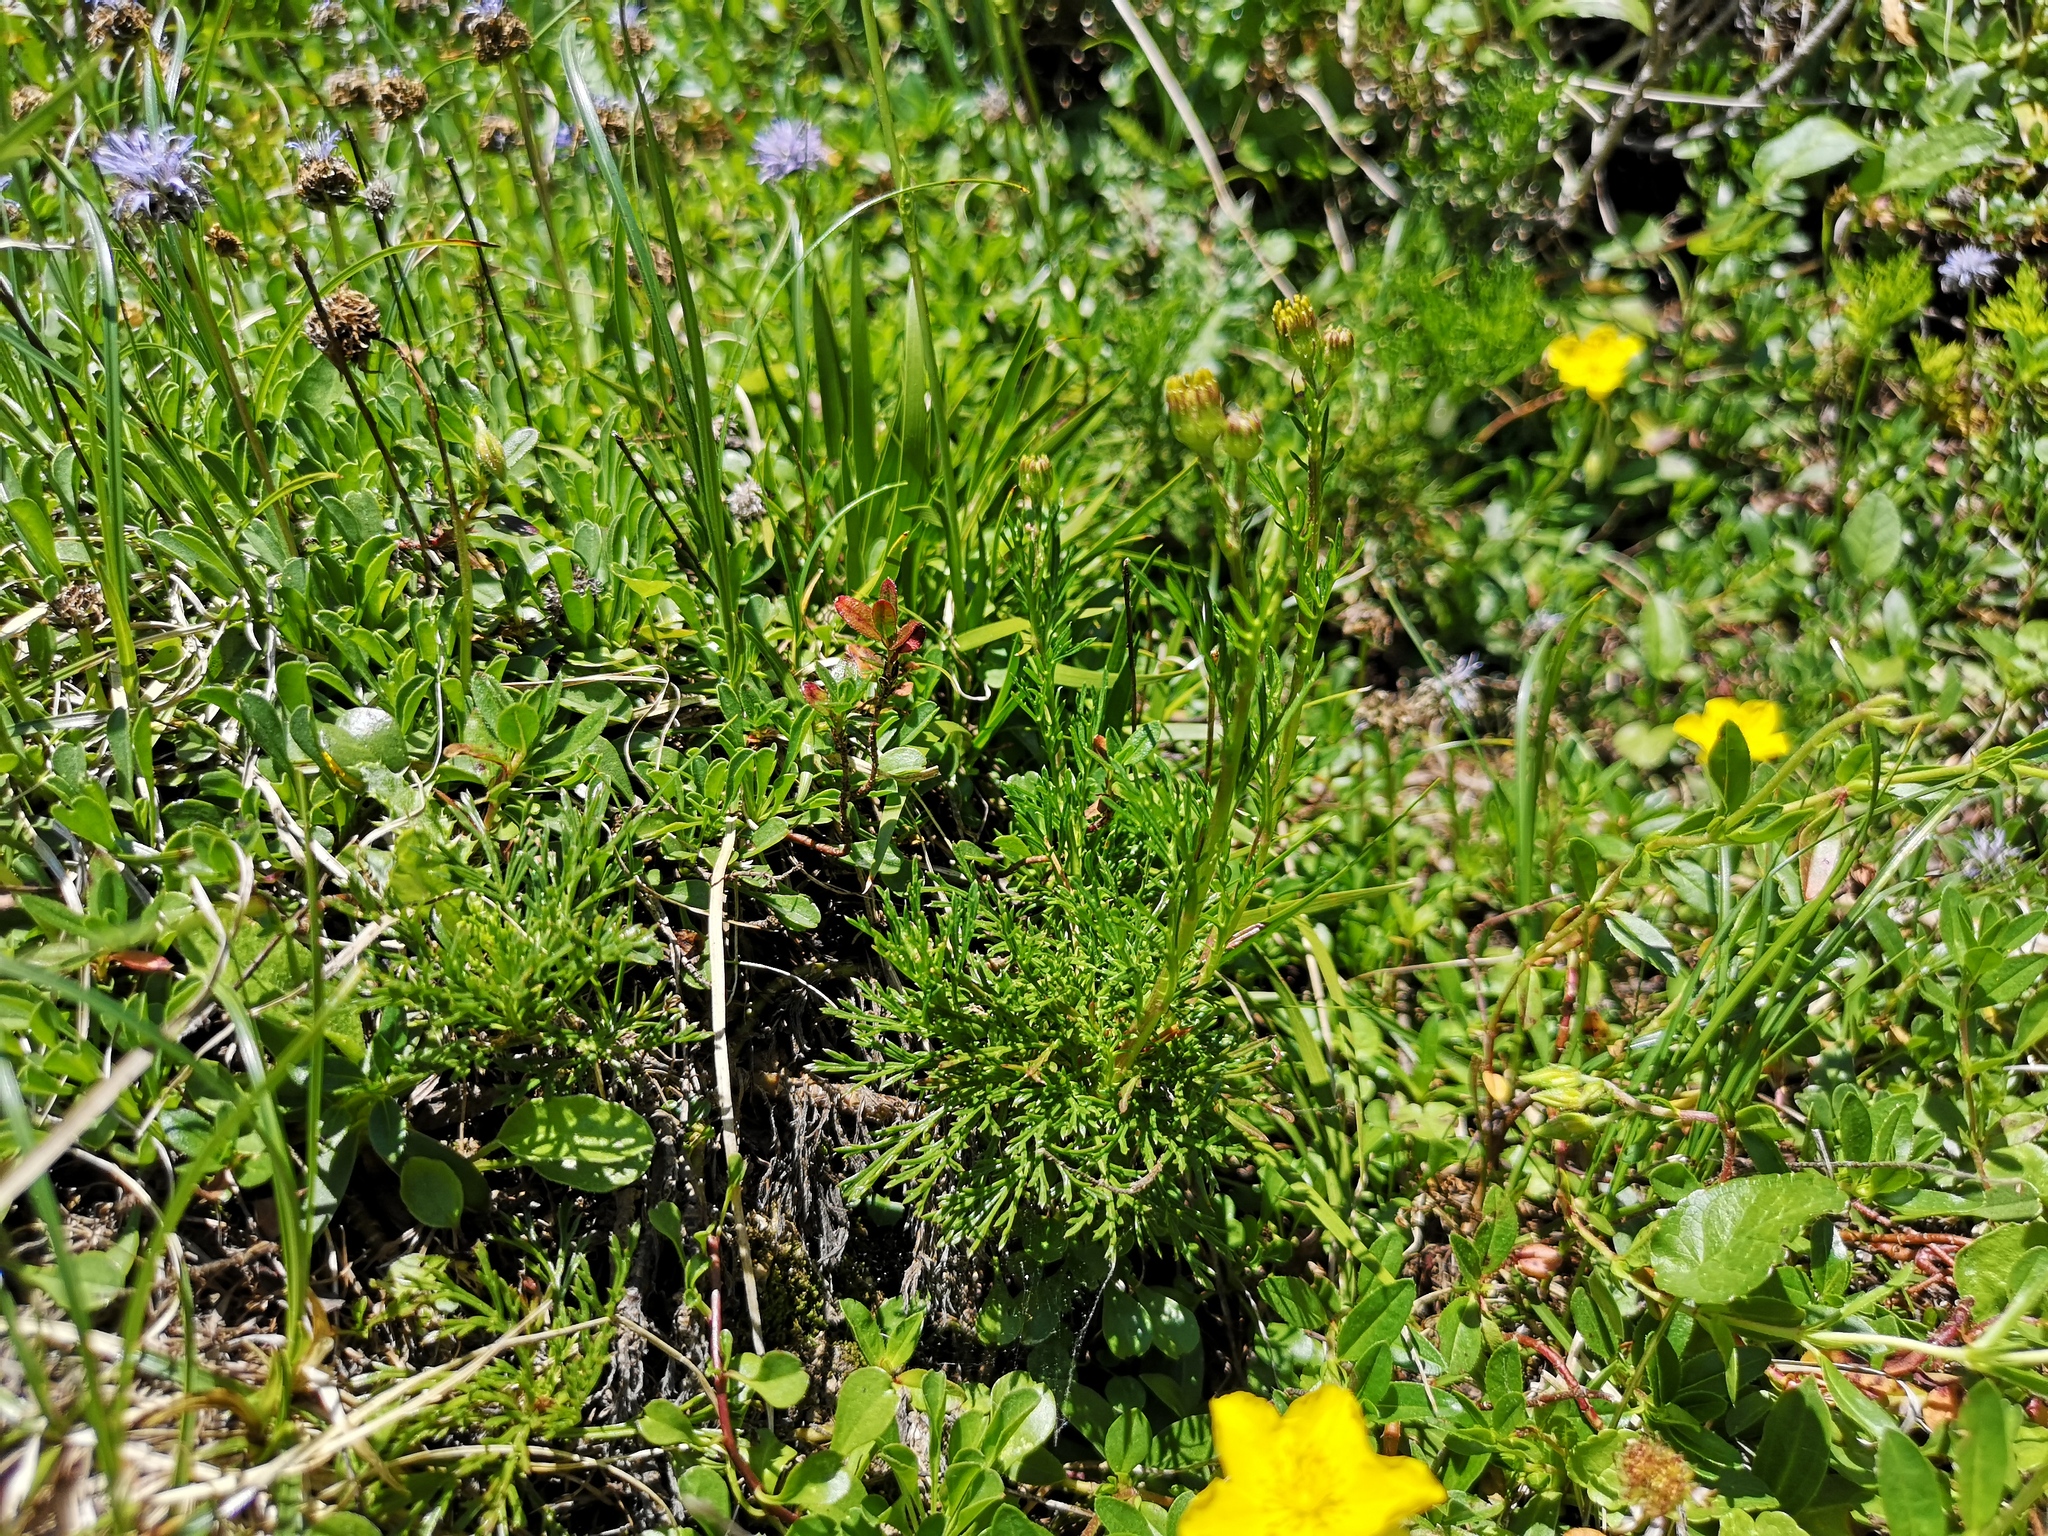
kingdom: Plantae
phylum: Tracheophyta
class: Magnoliopsida
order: Asterales
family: Asteraceae
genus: Jacobaea
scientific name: Jacobaea abrotanifolia
